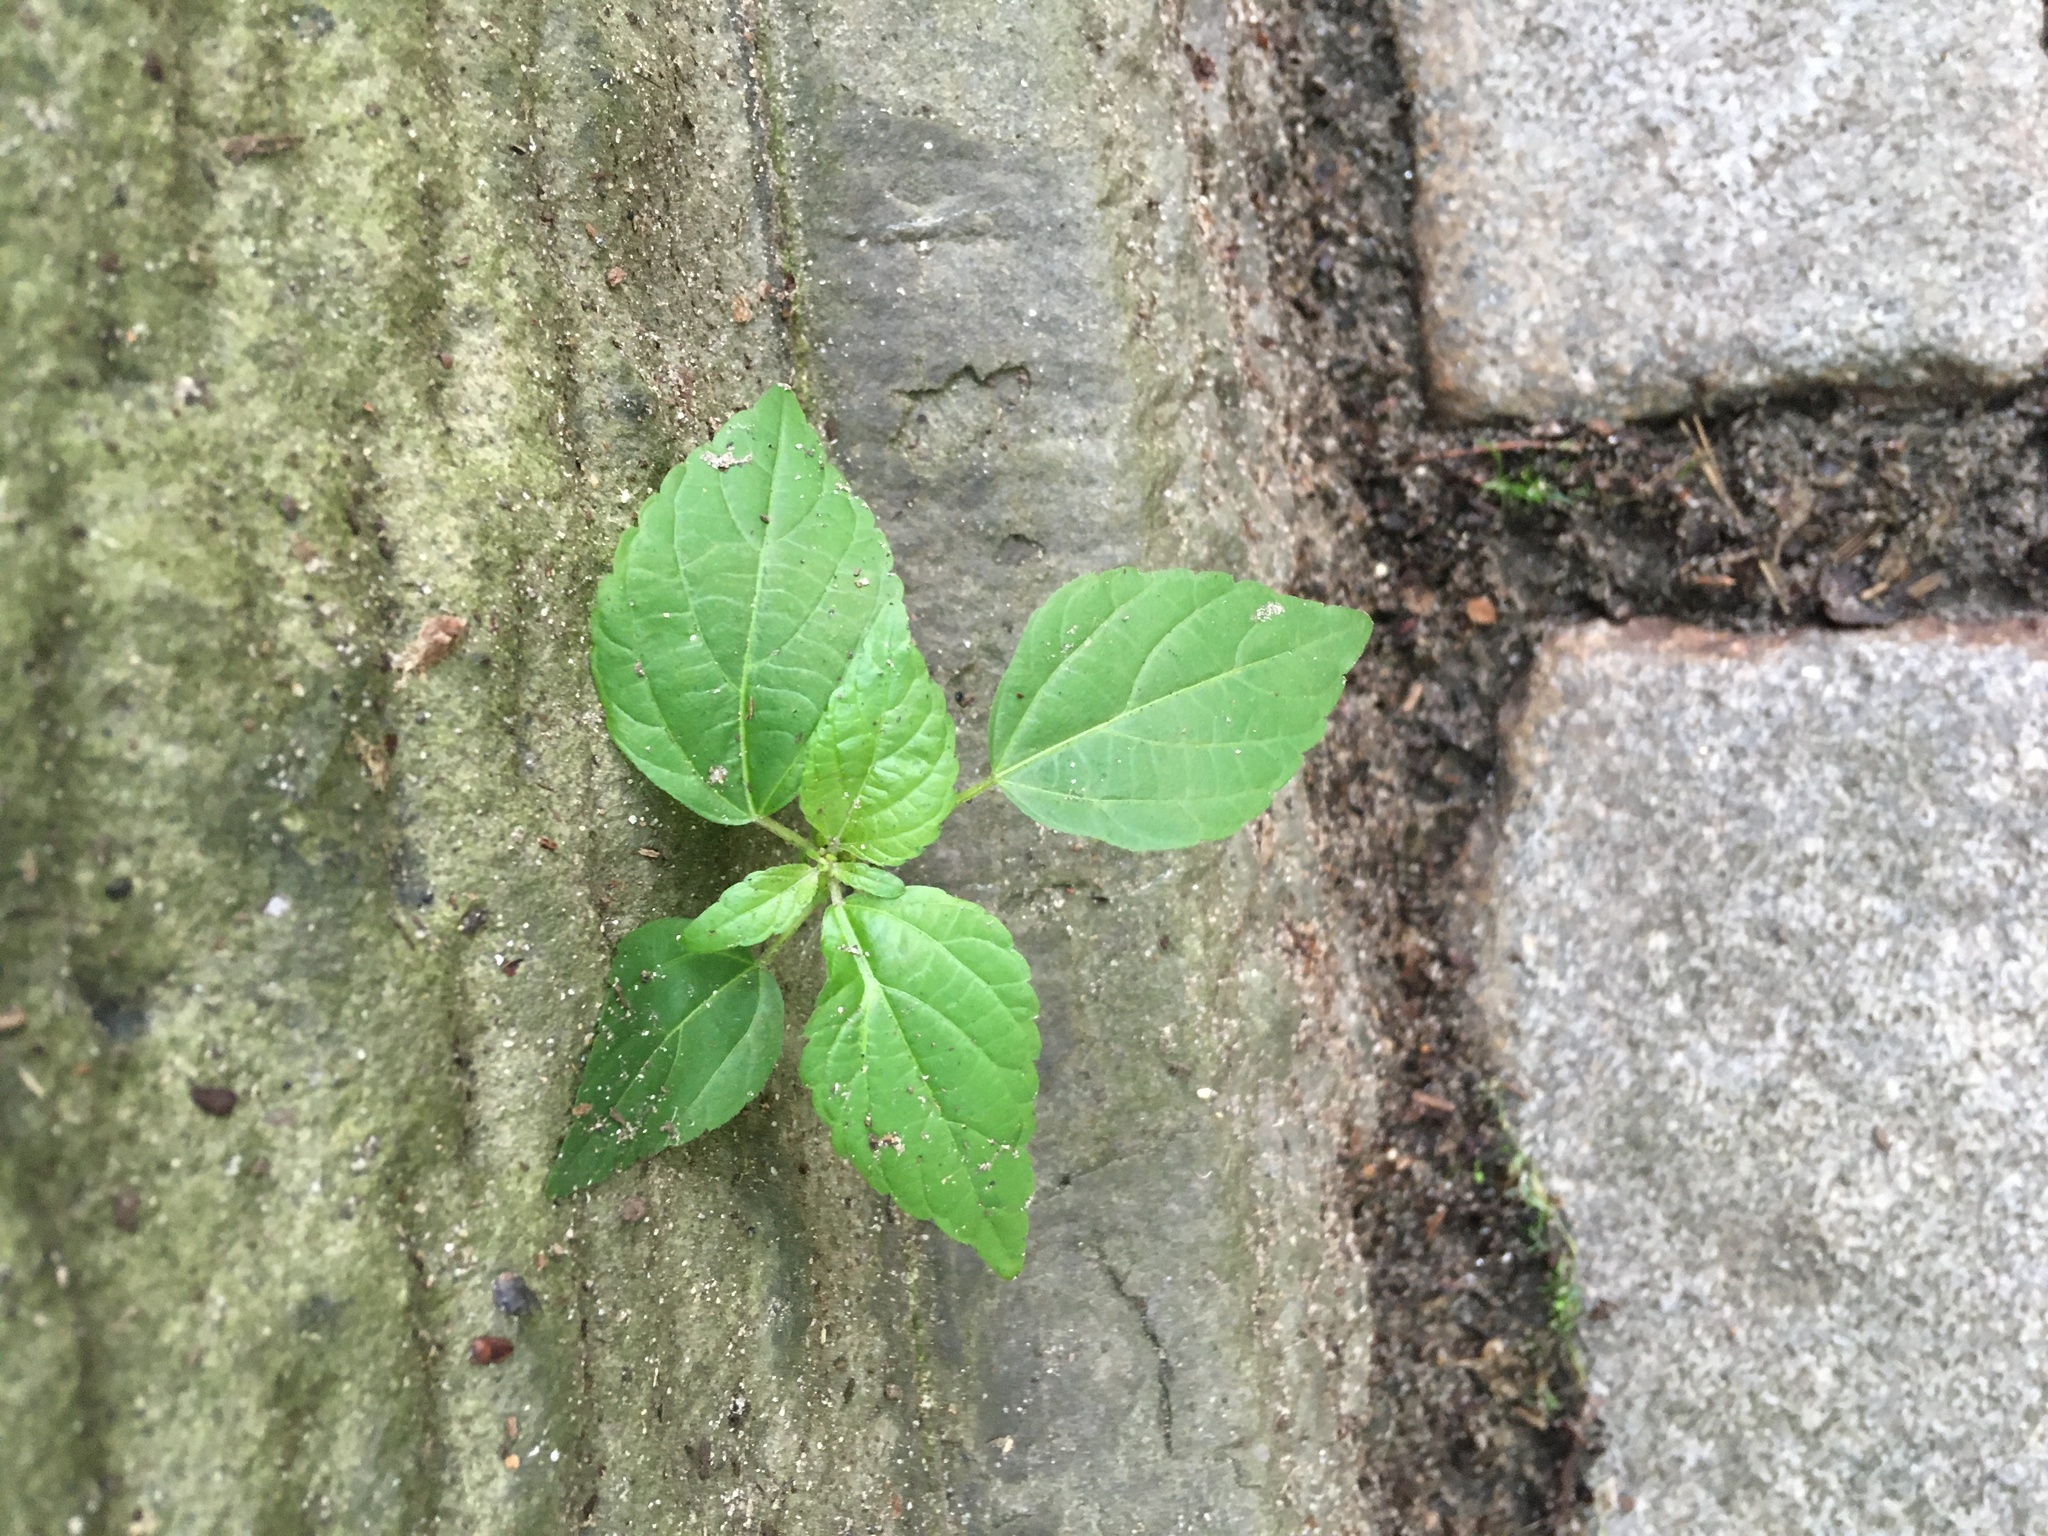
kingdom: Plantae
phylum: Tracheophyta
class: Magnoliopsida
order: Malpighiales
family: Euphorbiaceae
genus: Acalypha
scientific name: Acalypha rhomboidea
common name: Rhombic copperleaf
